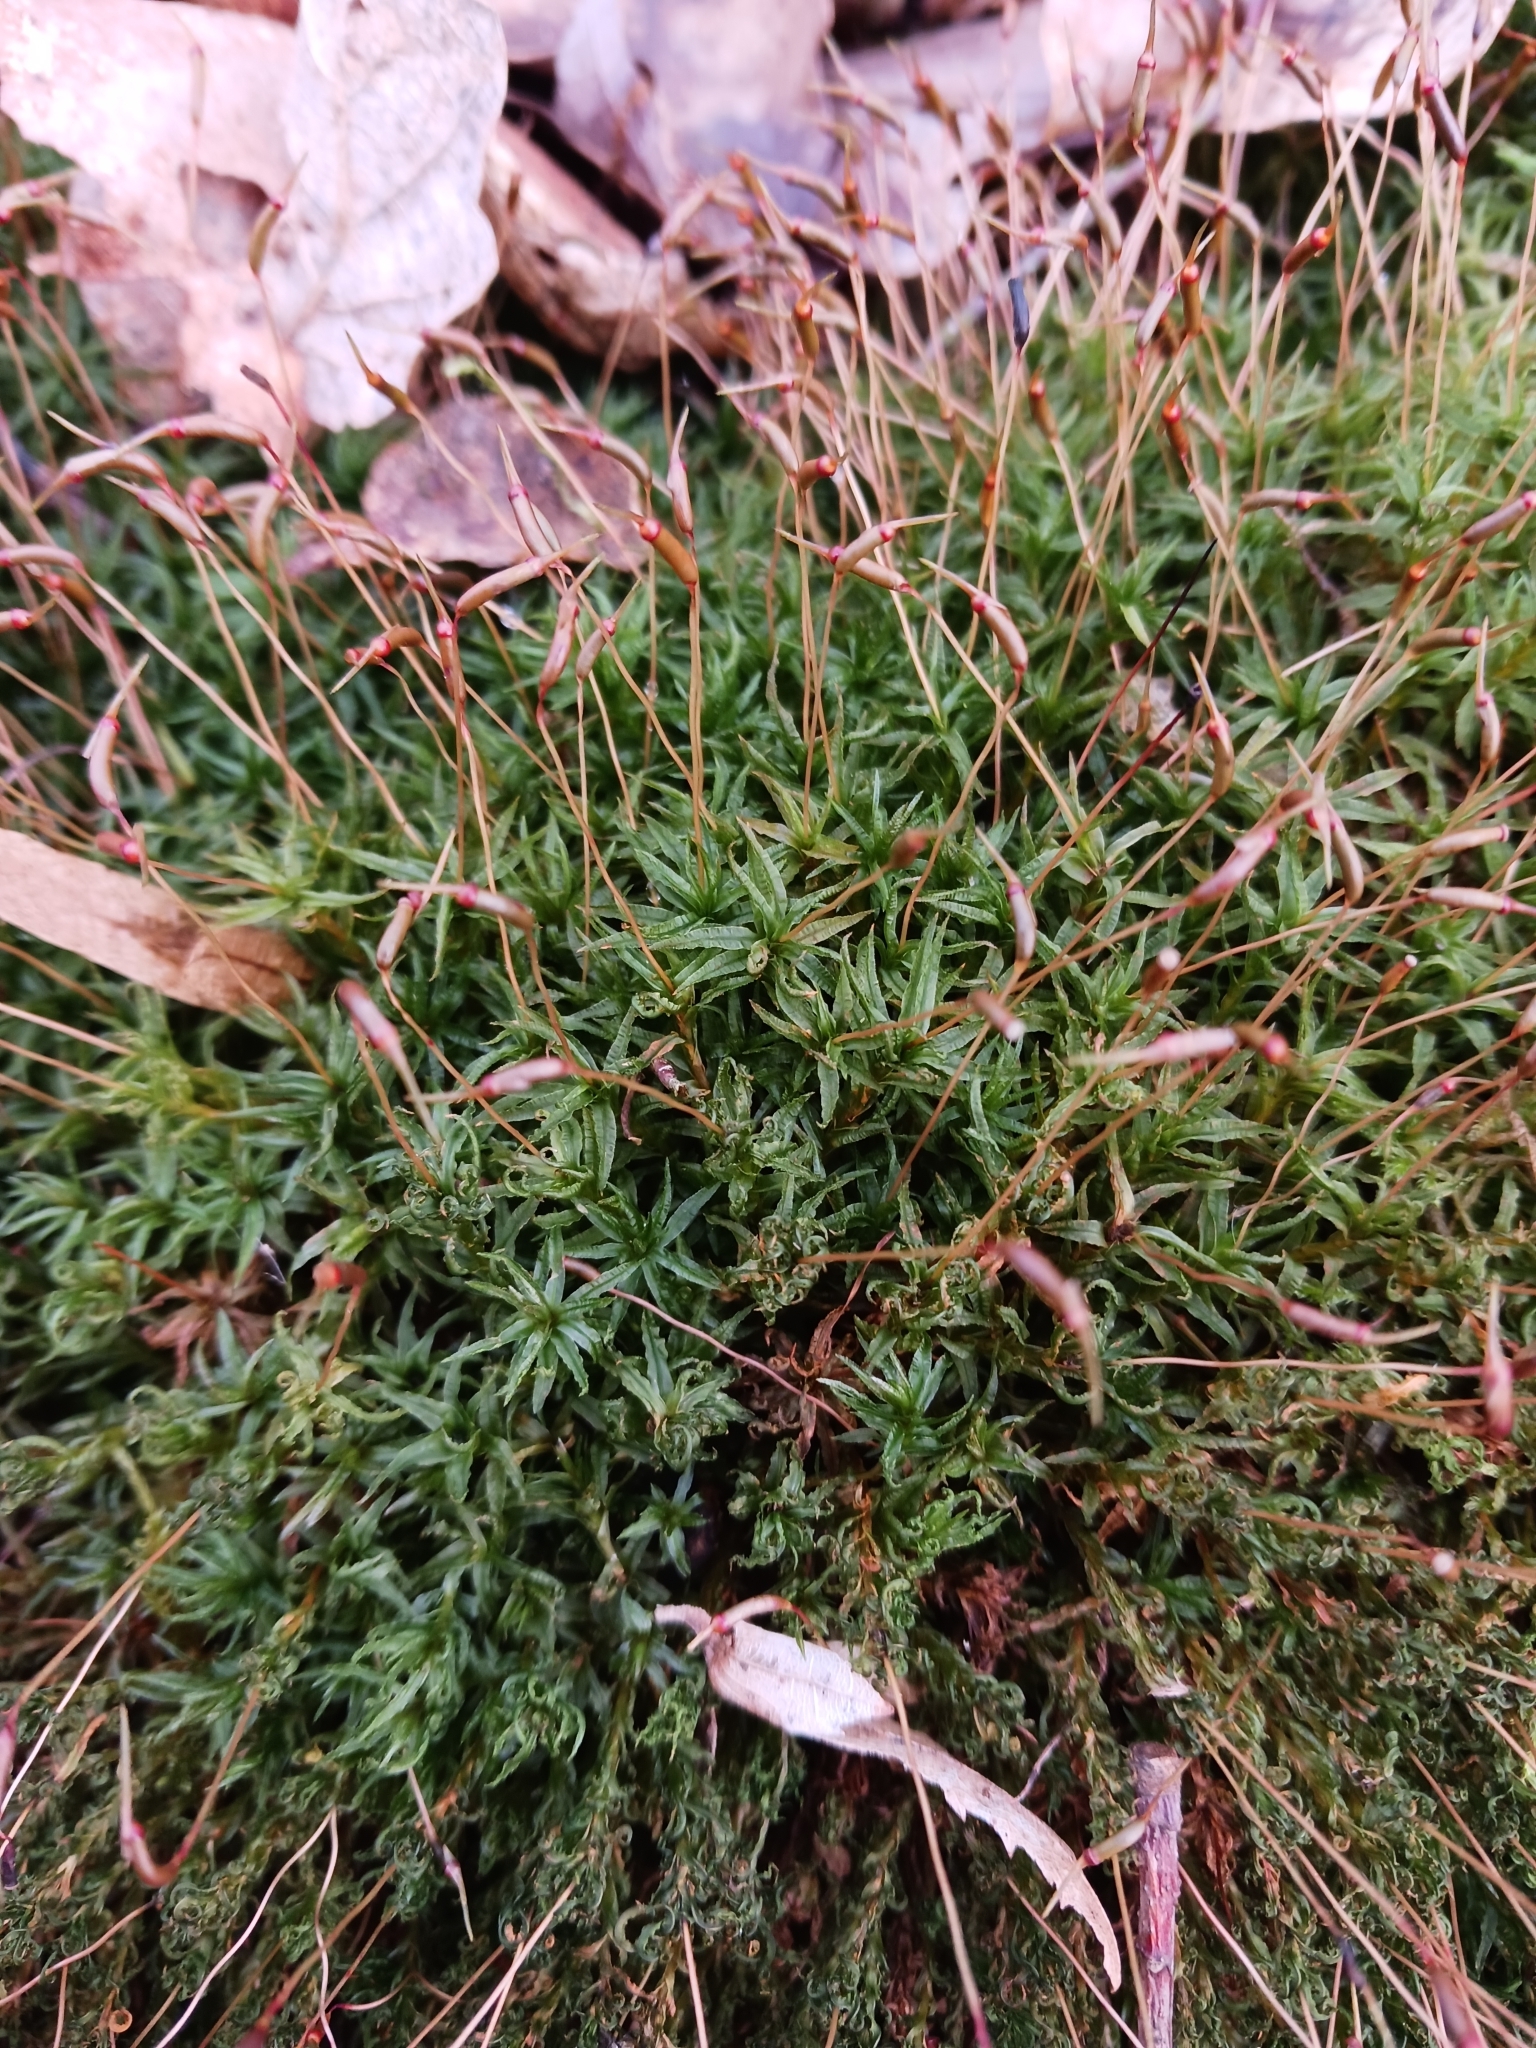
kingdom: Plantae
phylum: Bryophyta
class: Polytrichopsida
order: Polytrichales
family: Polytrichaceae
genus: Atrichum
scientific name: Atrichum undulatum
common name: Common smoothcap
